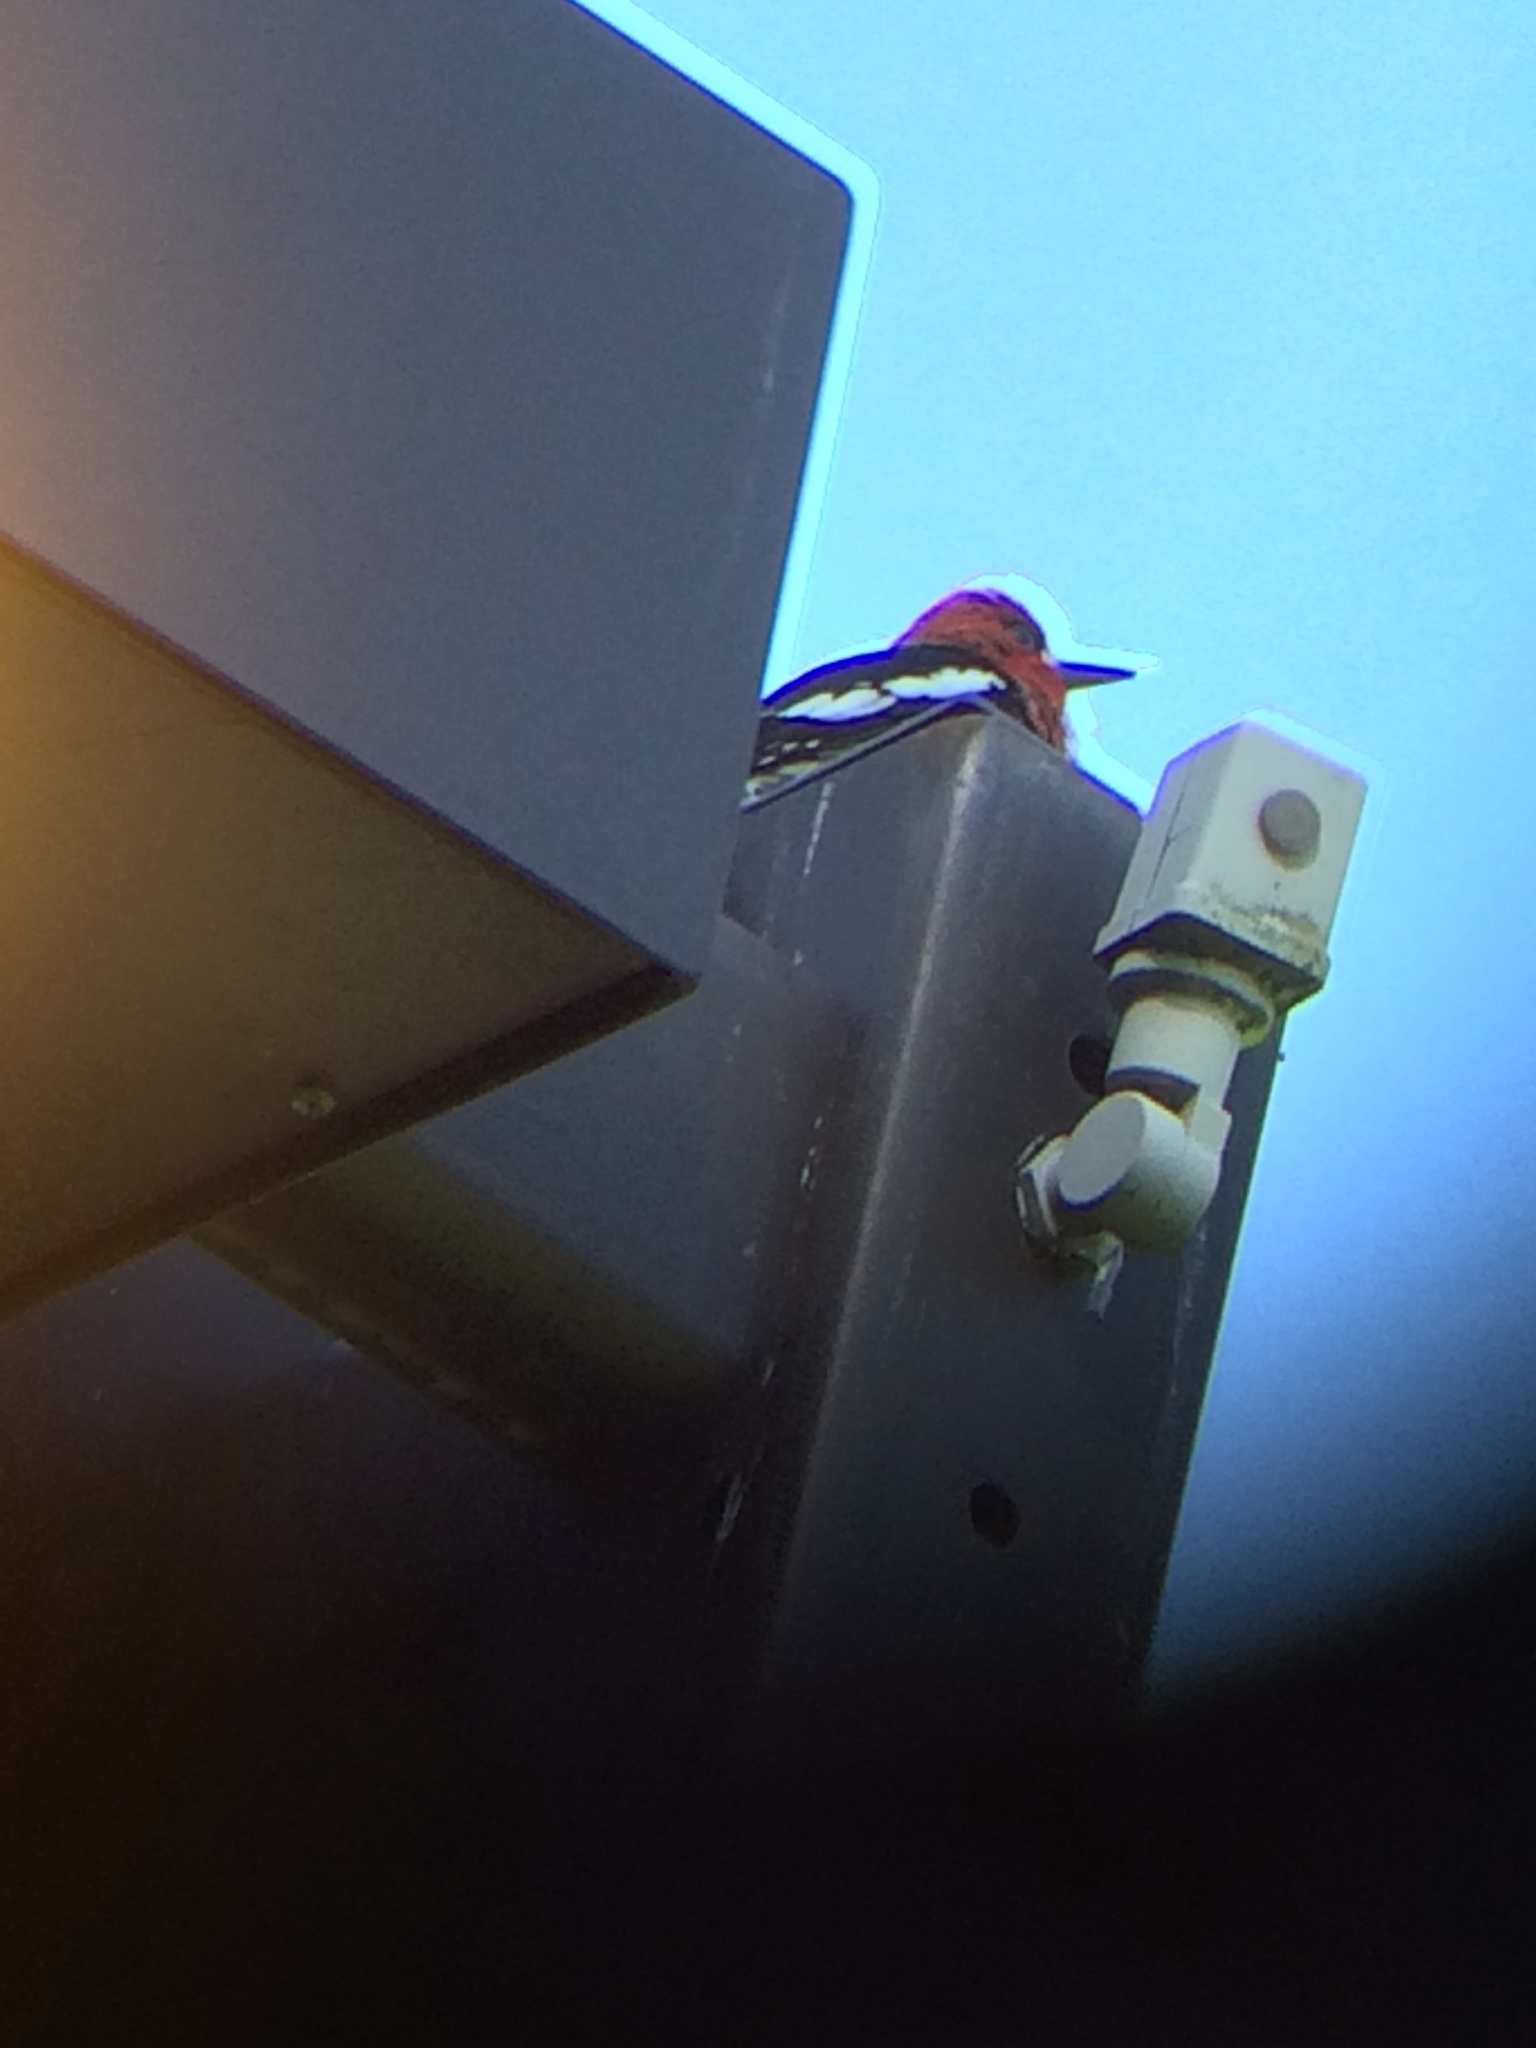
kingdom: Animalia
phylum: Chordata
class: Aves
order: Piciformes
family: Picidae
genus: Sphyrapicus
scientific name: Sphyrapicus ruber
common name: Red-breasted sapsucker
